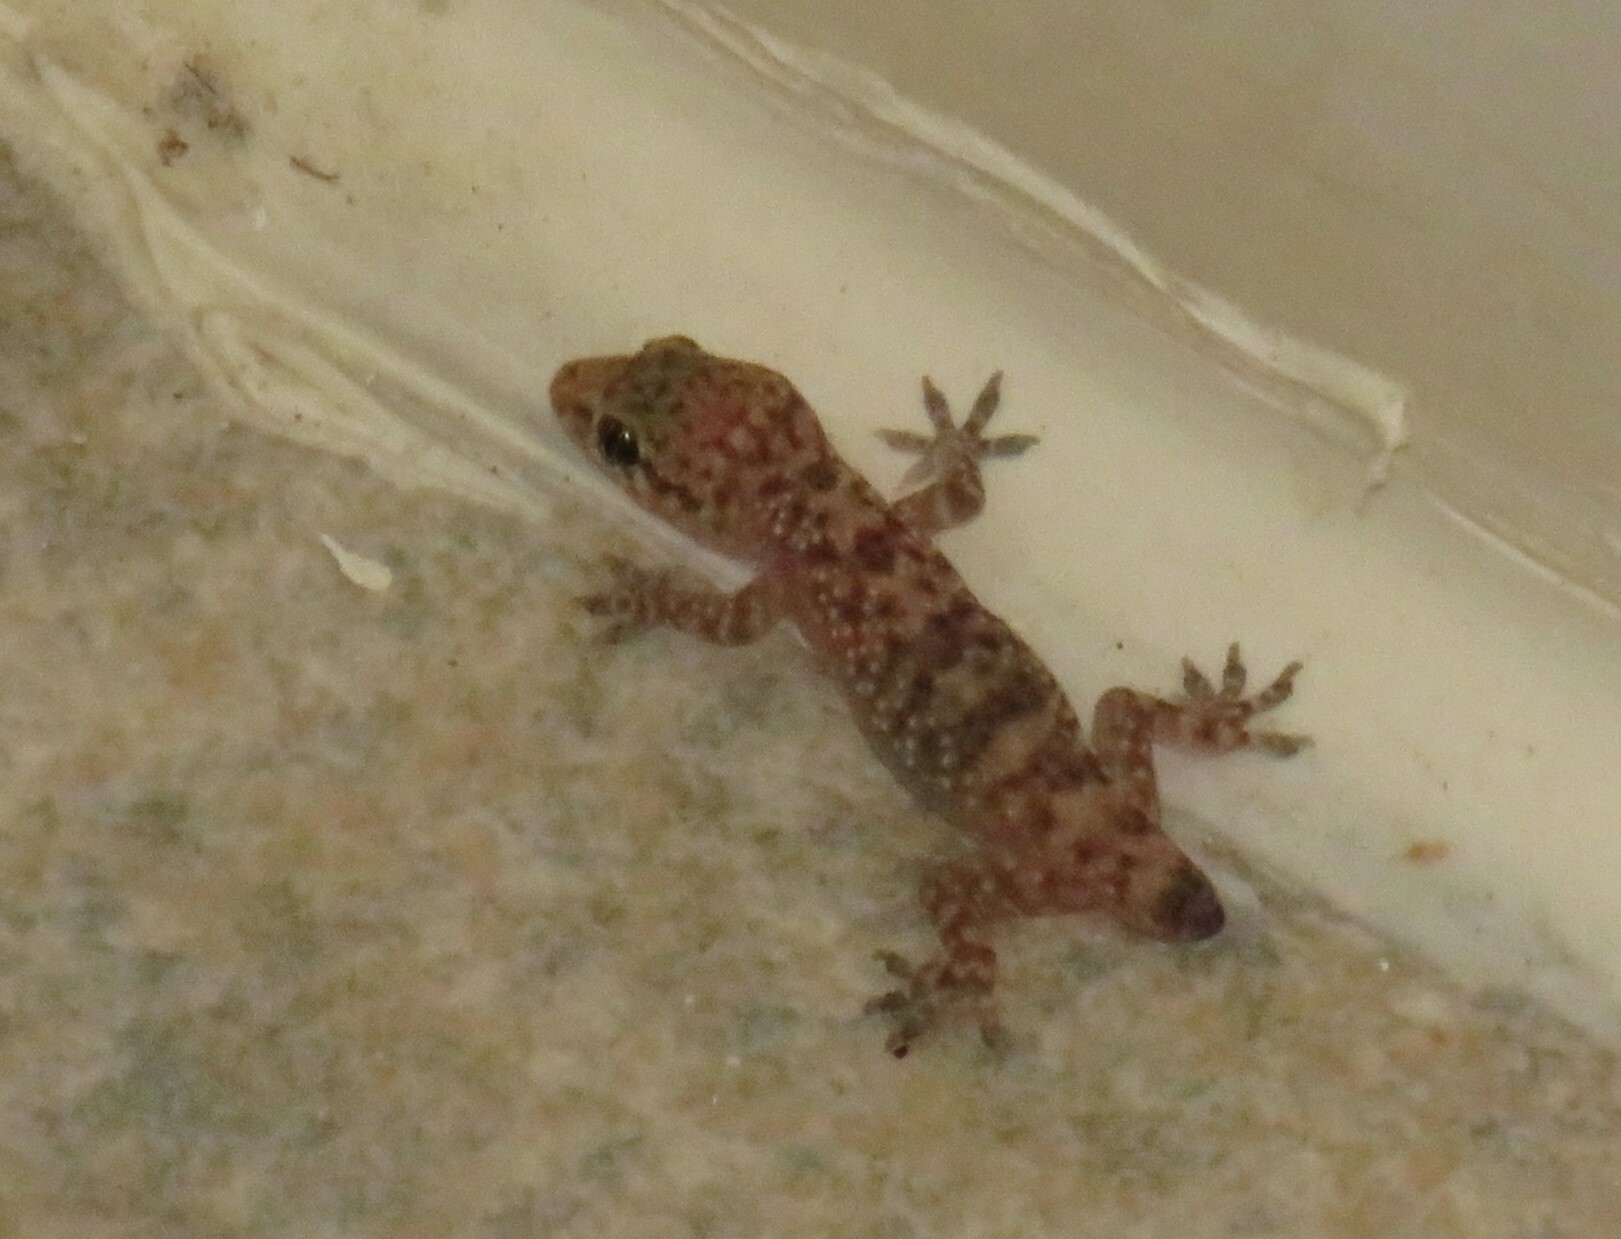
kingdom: Animalia
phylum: Chordata
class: Squamata
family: Gekkonidae
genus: Hemidactylus
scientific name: Hemidactylus turcicus
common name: Turkish gecko
